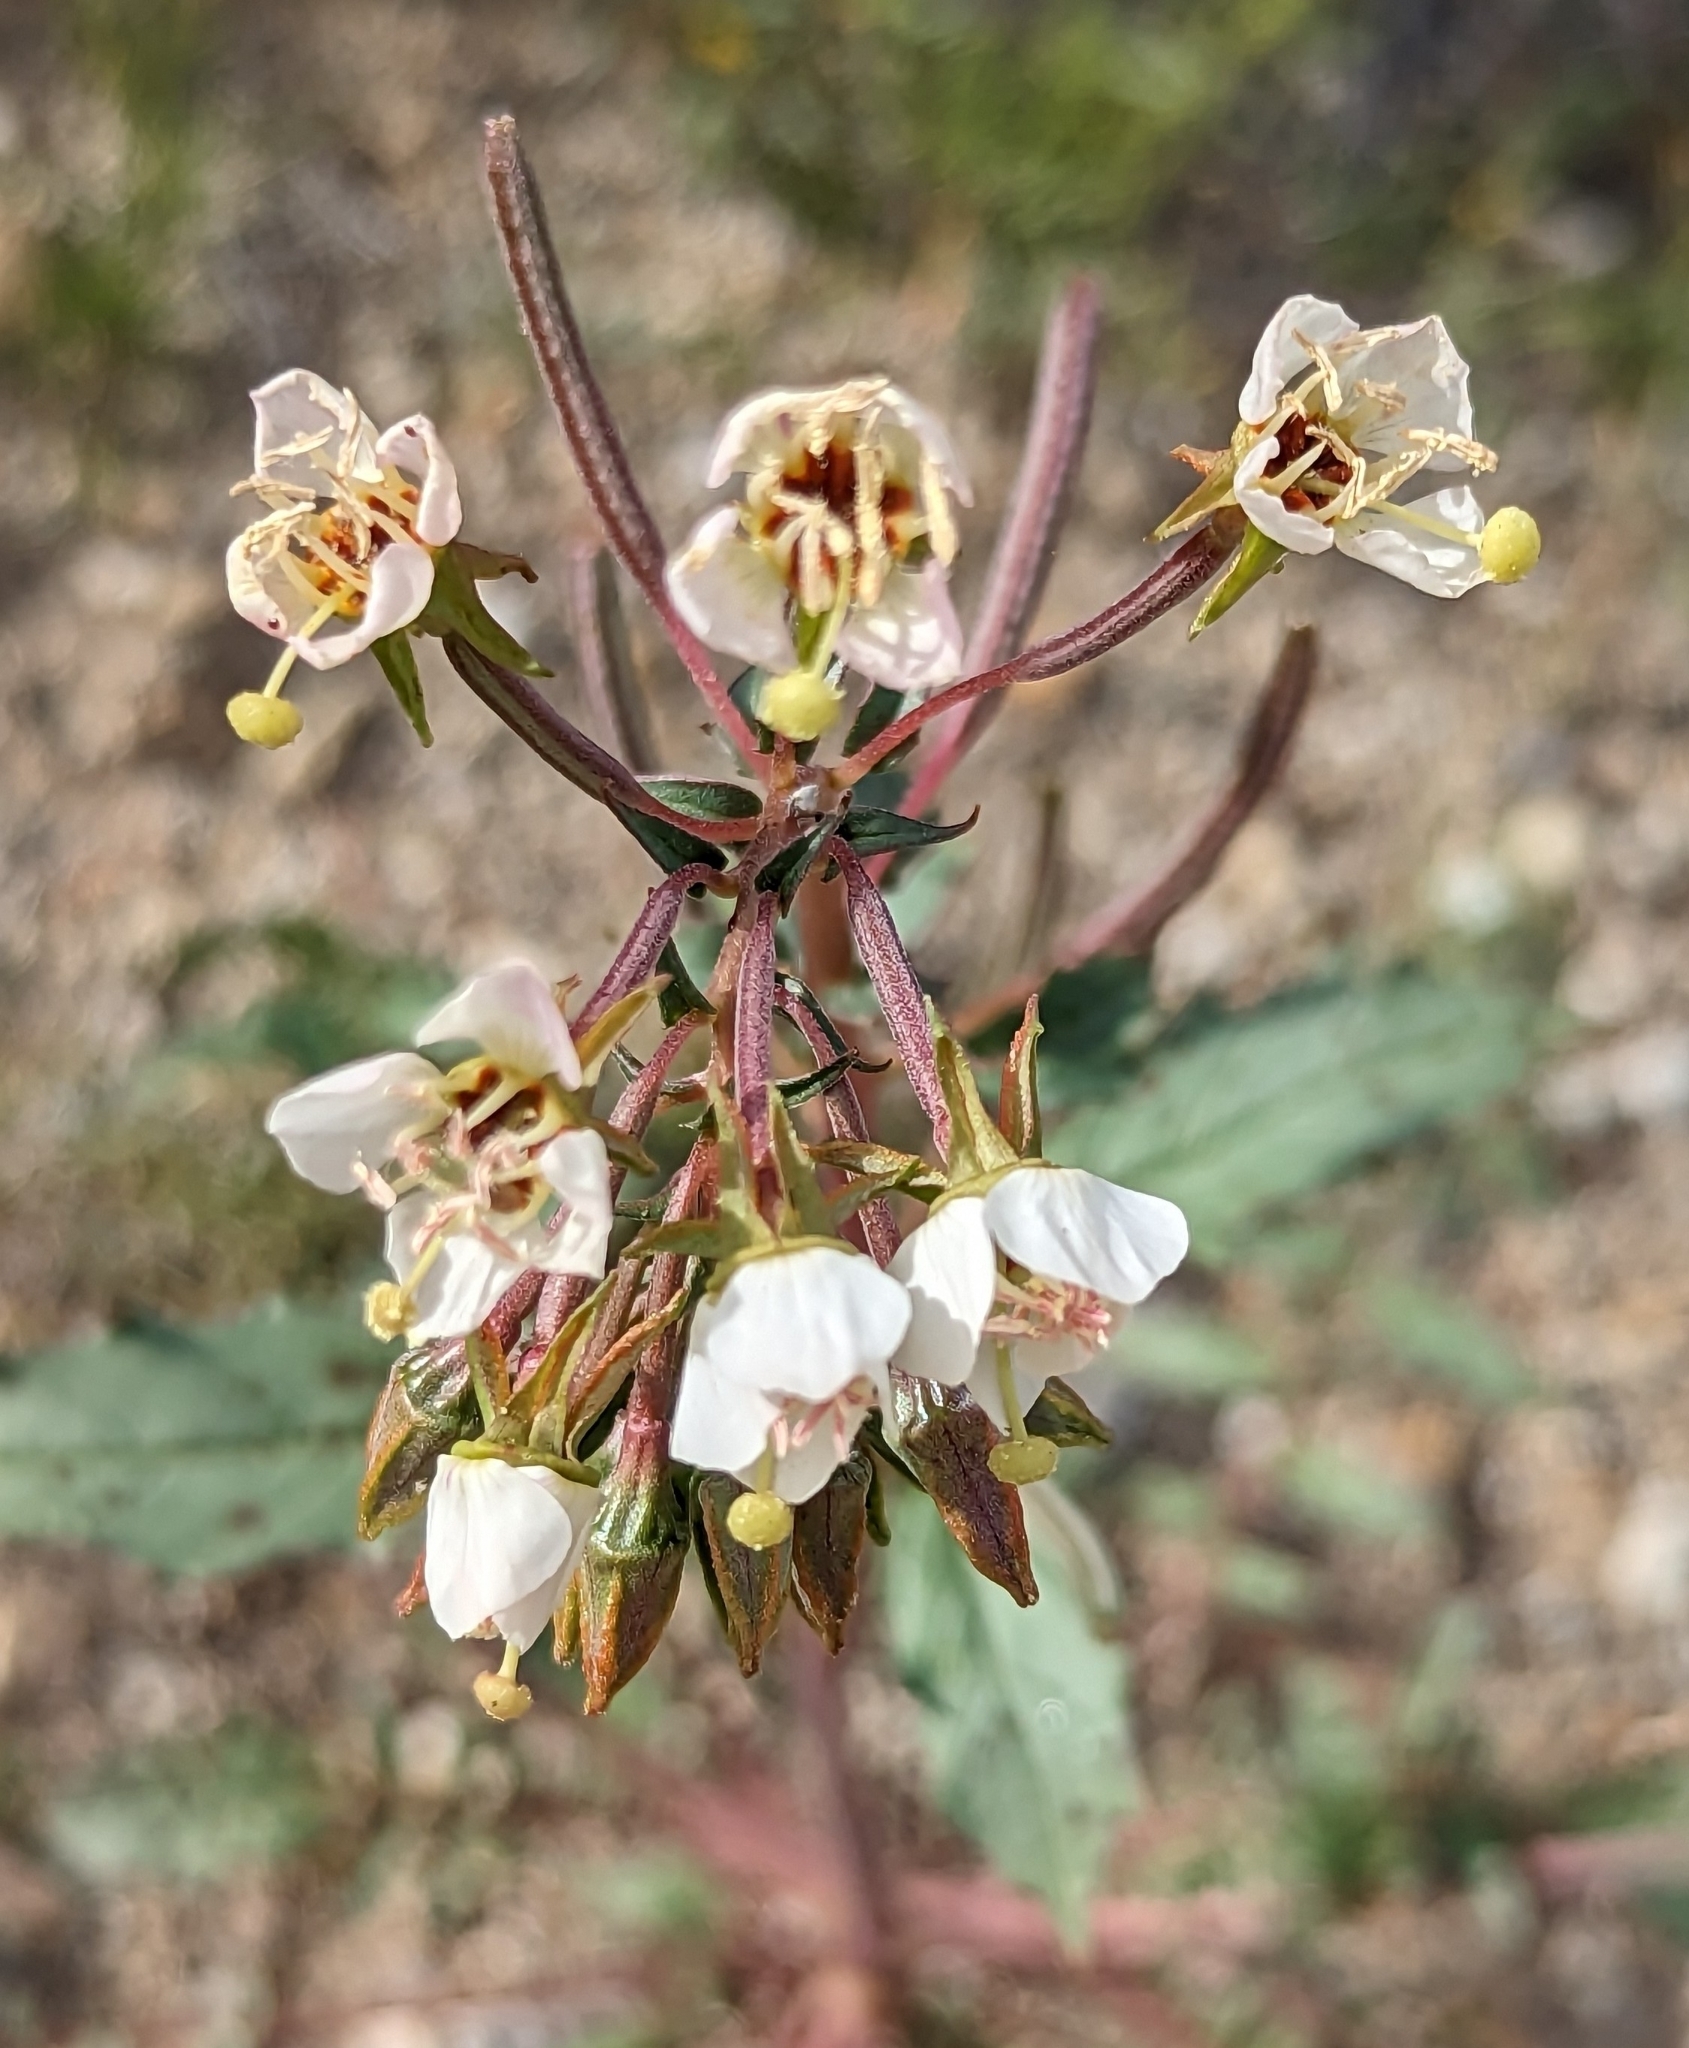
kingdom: Plantae
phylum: Tracheophyta
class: Magnoliopsida
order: Myrtales
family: Onagraceae
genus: Chylismia
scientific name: Chylismia claviformis
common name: Browneyes
